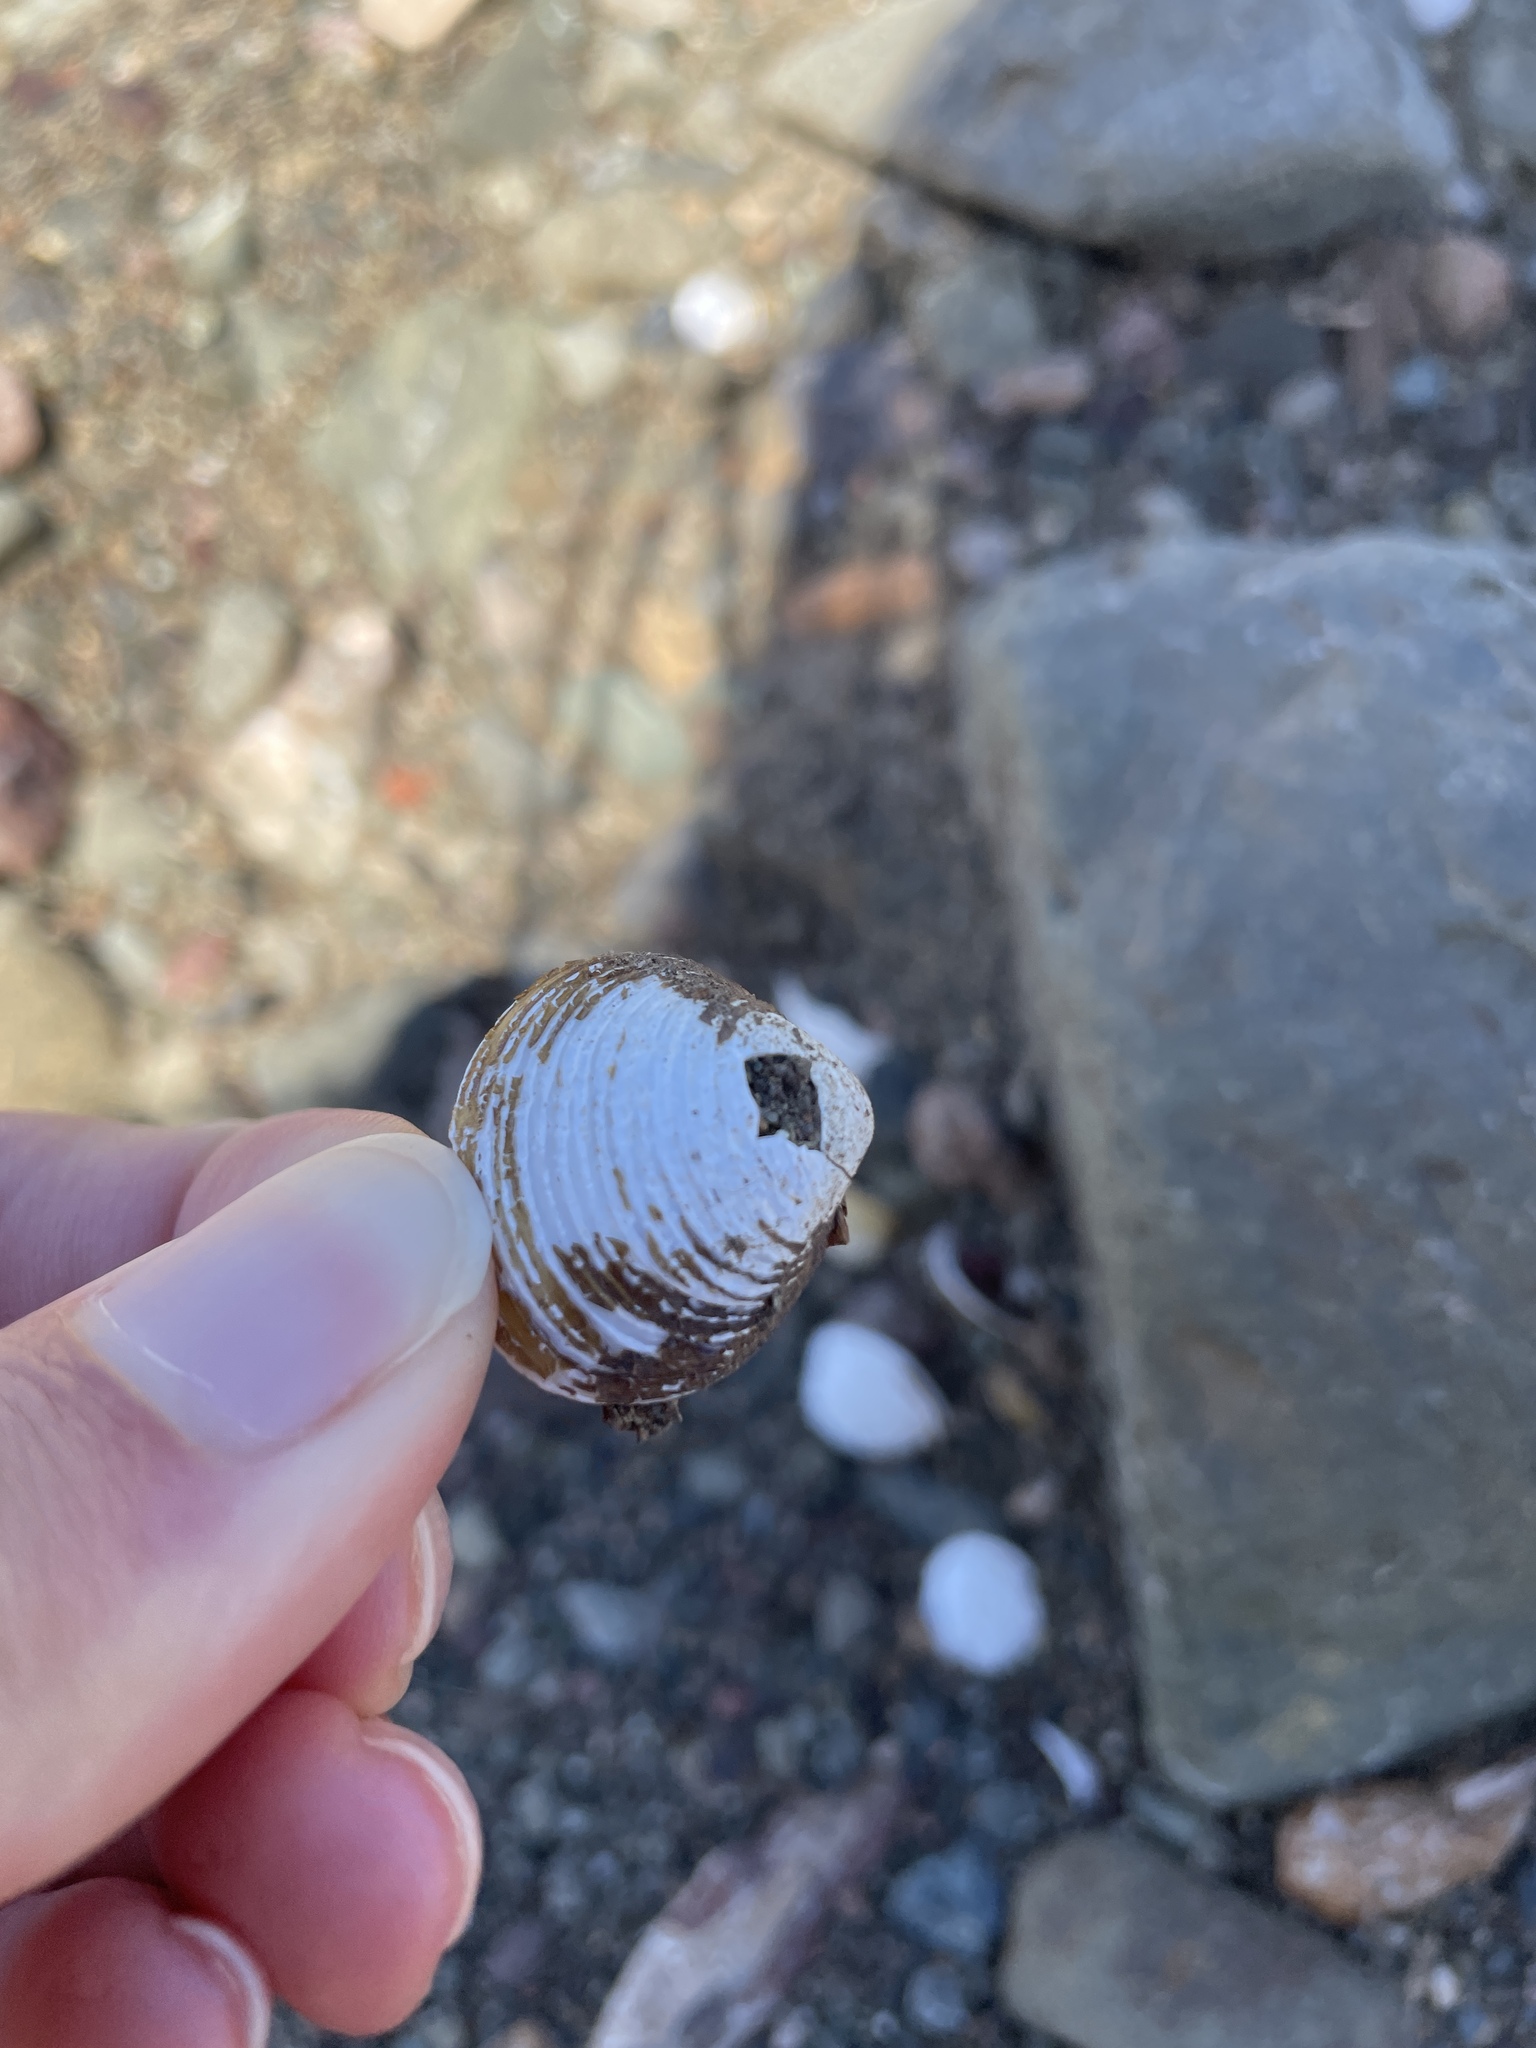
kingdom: Animalia
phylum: Mollusca
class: Bivalvia
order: Venerida
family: Cyrenidae
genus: Corbicula
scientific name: Corbicula fluminea
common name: Asian clam
